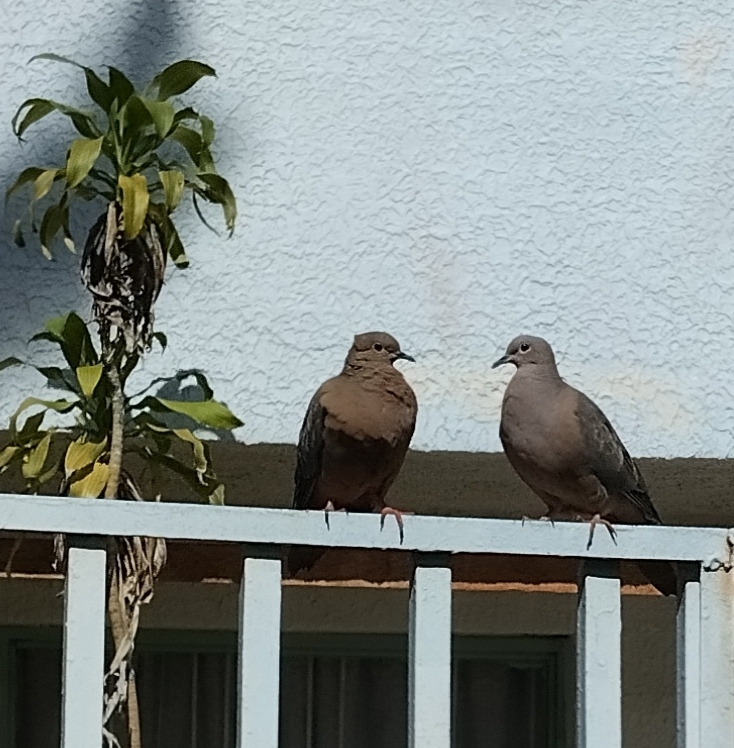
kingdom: Animalia
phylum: Chordata
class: Aves
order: Columbiformes
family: Columbidae
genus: Zenaida
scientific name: Zenaida auriculata
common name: Eared dove
